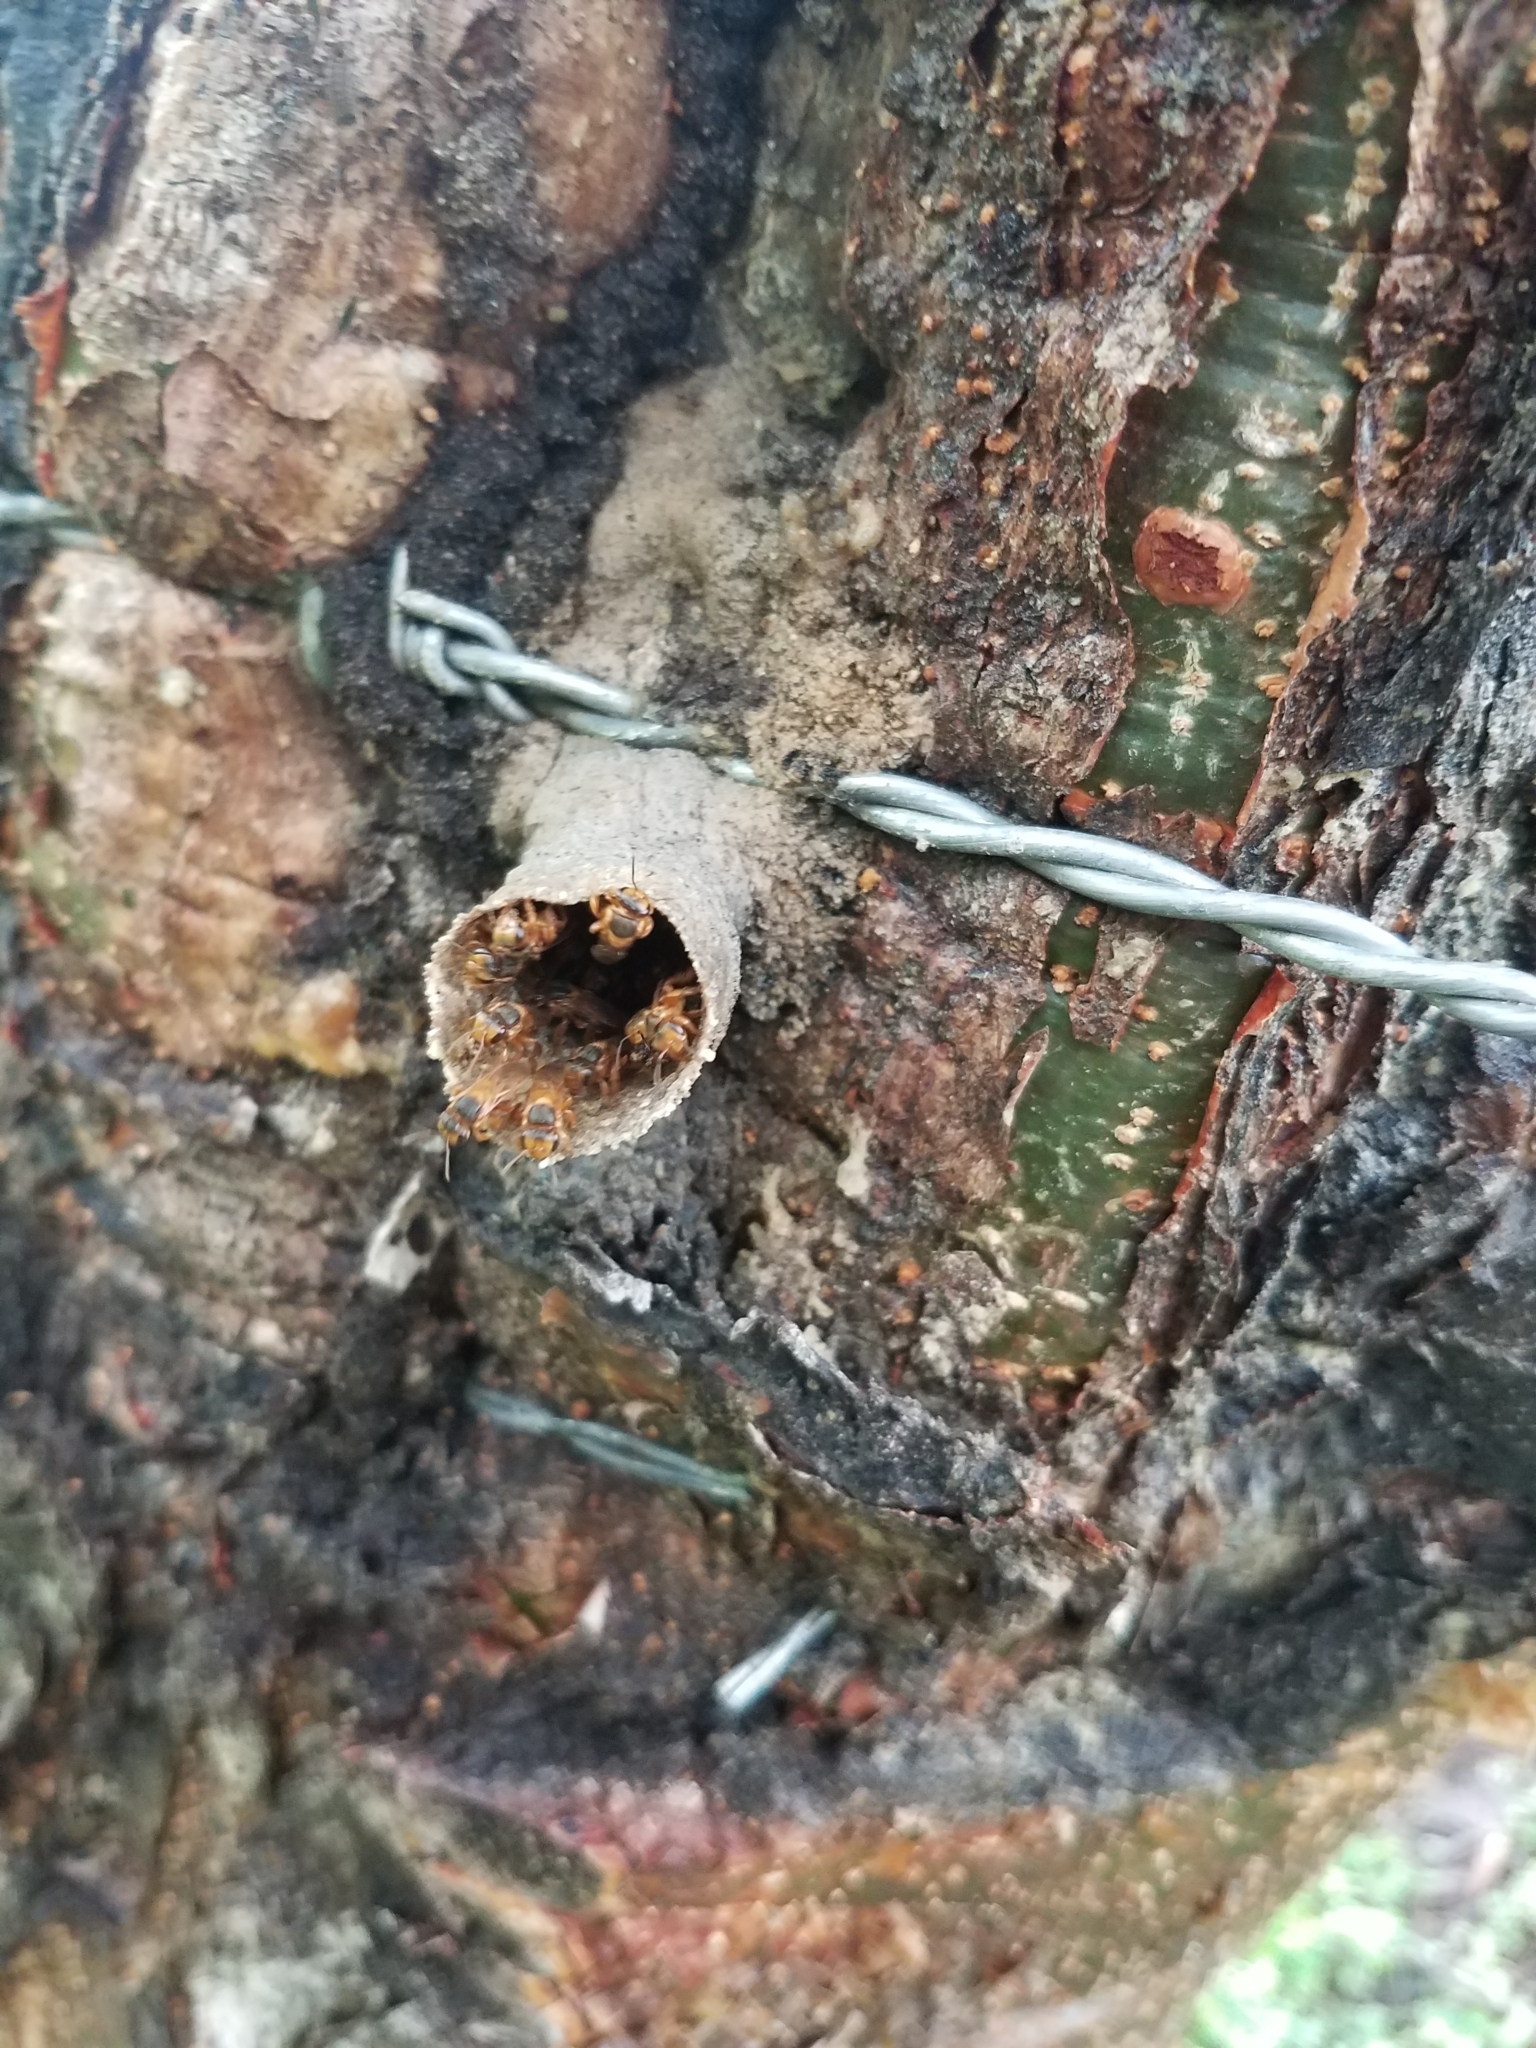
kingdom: Animalia
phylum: Arthropoda
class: Insecta
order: Hymenoptera
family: Apidae
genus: Scaptotrigona
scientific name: Scaptotrigona pectoralis
